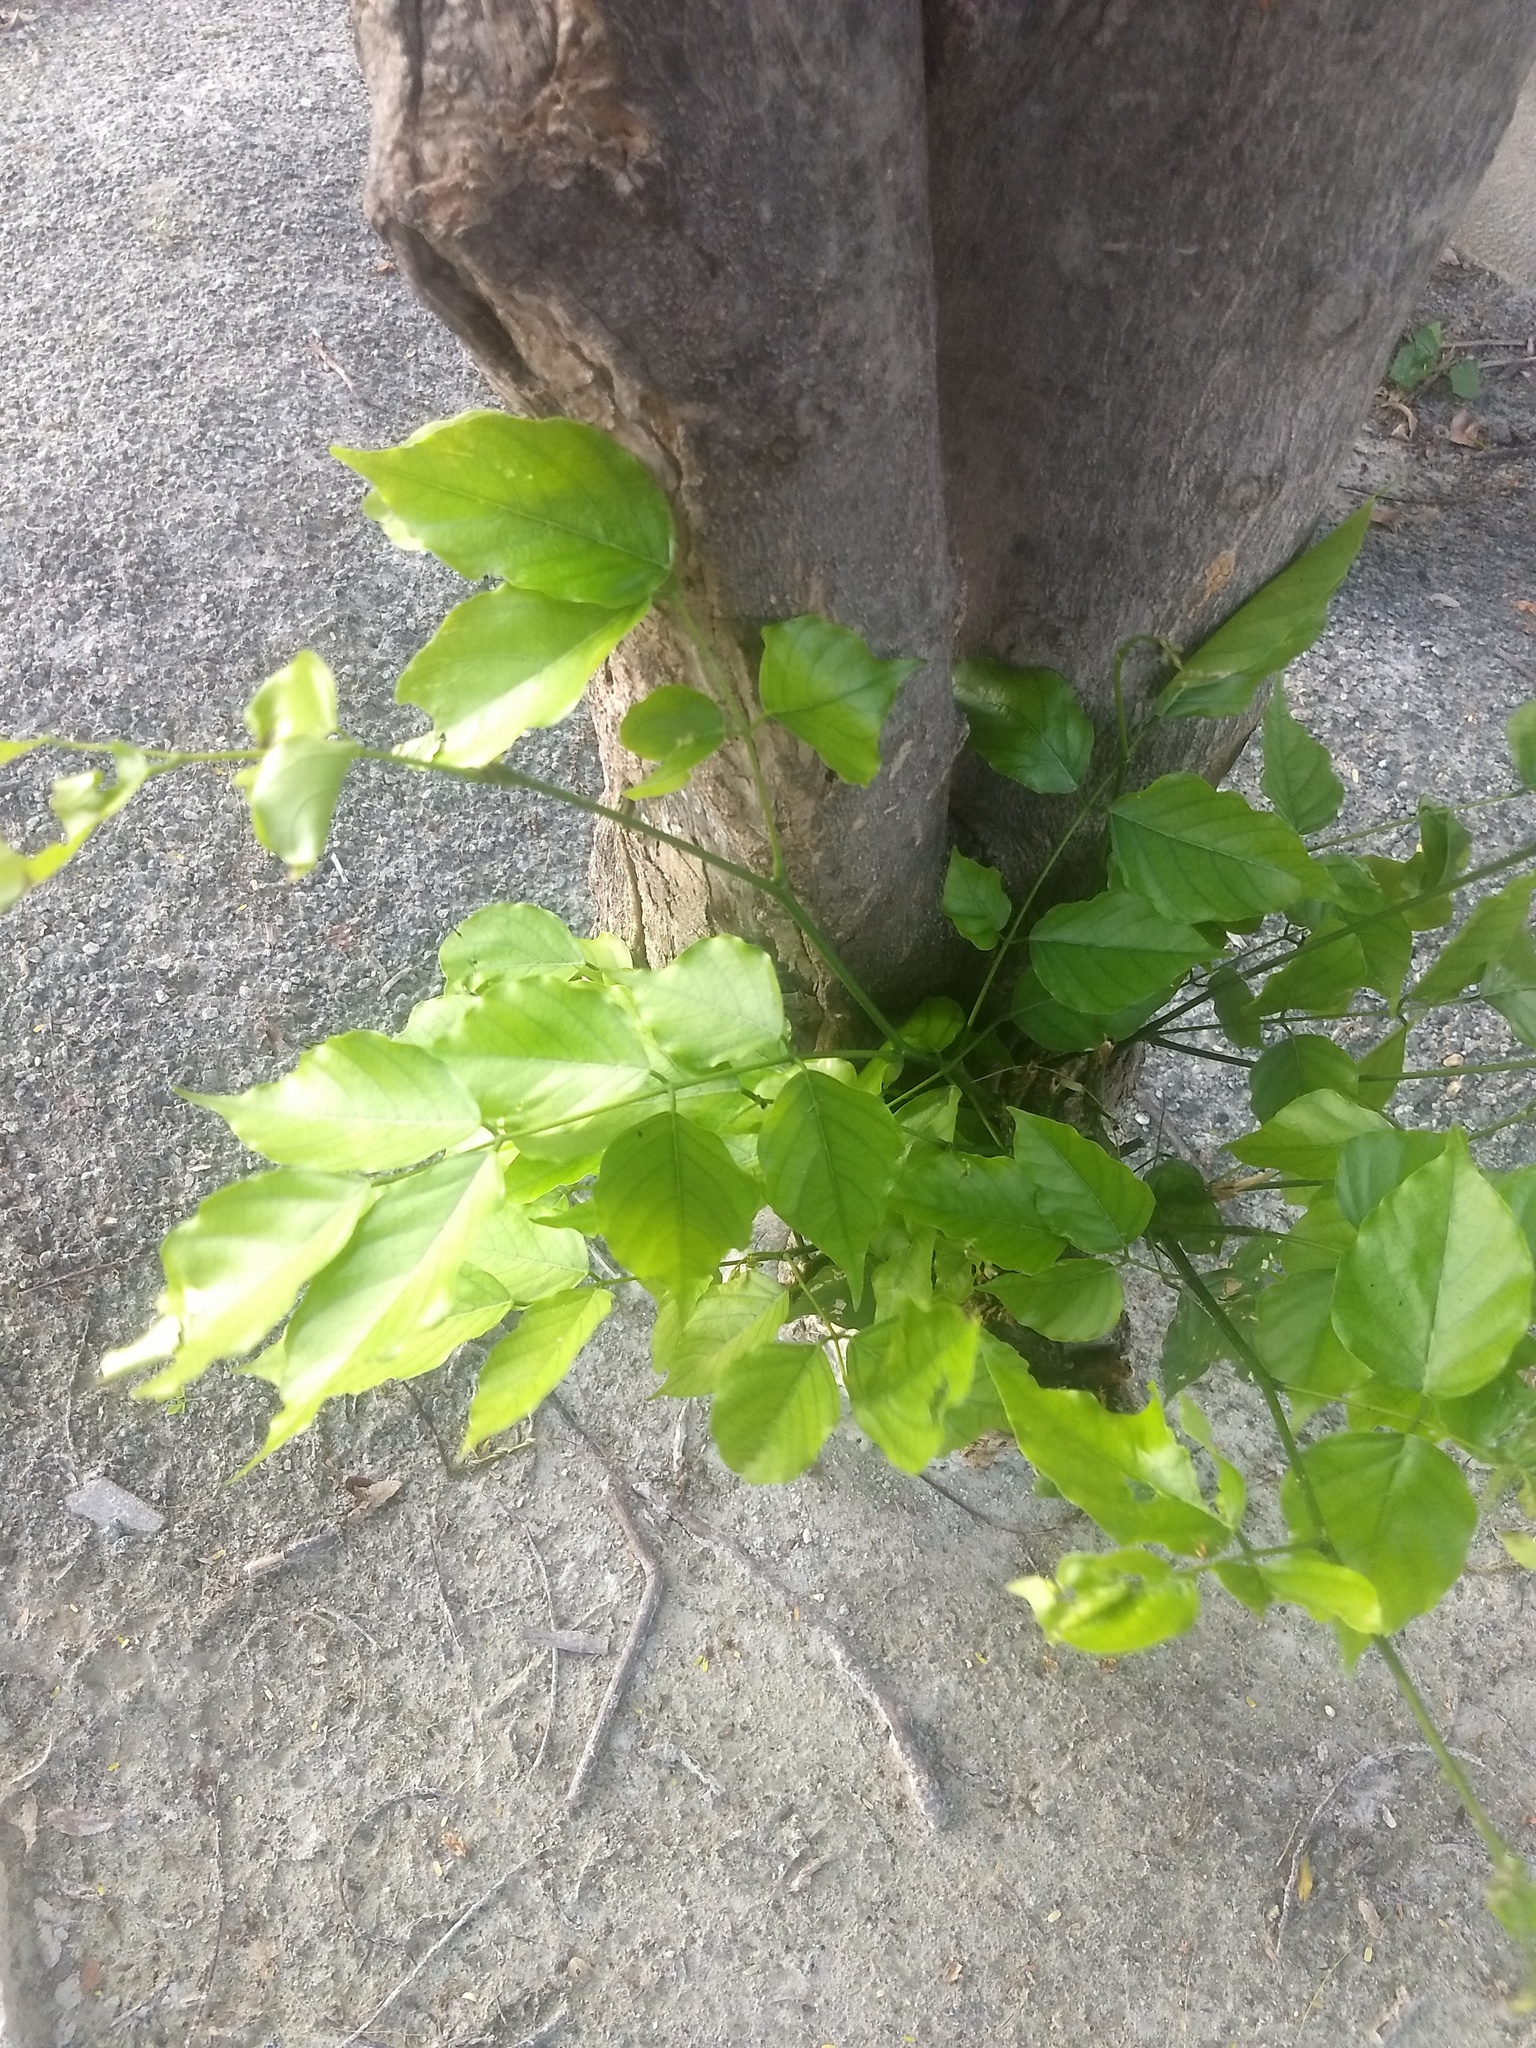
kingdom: Plantae
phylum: Tracheophyta
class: Magnoliopsida
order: Fabales
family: Fabaceae
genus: Pongamia
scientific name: Pongamia pinnata
